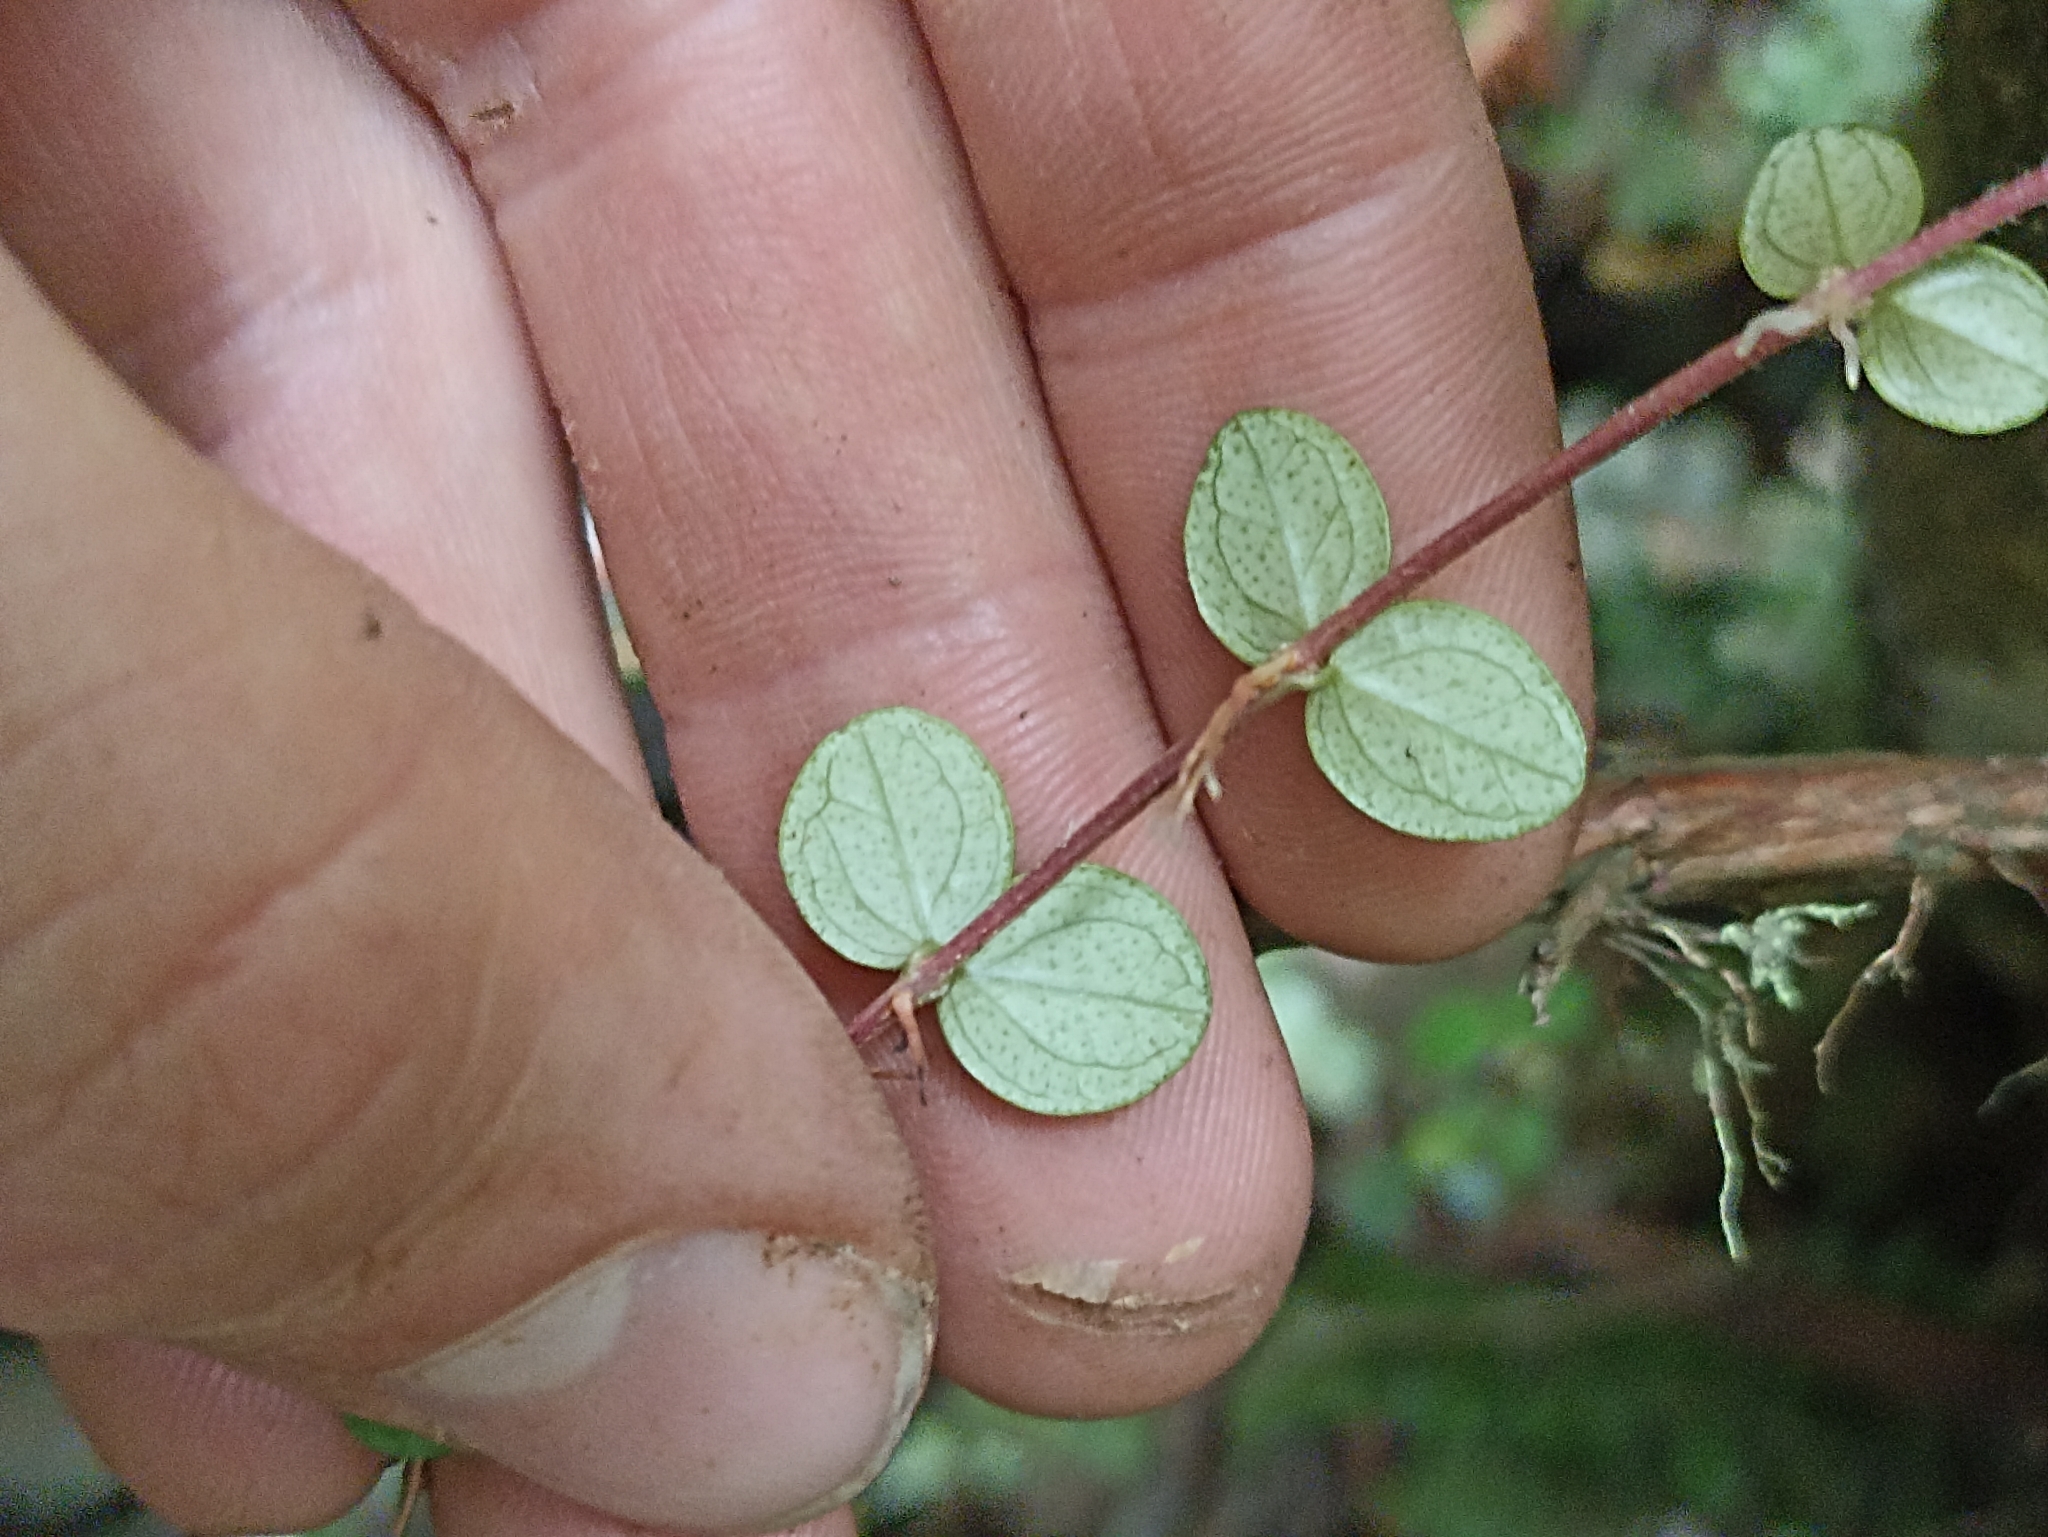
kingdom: Plantae
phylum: Tracheophyta
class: Magnoliopsida
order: Myrtales
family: Myrtaceae
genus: Metrosideros
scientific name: Metrosideros perforata
